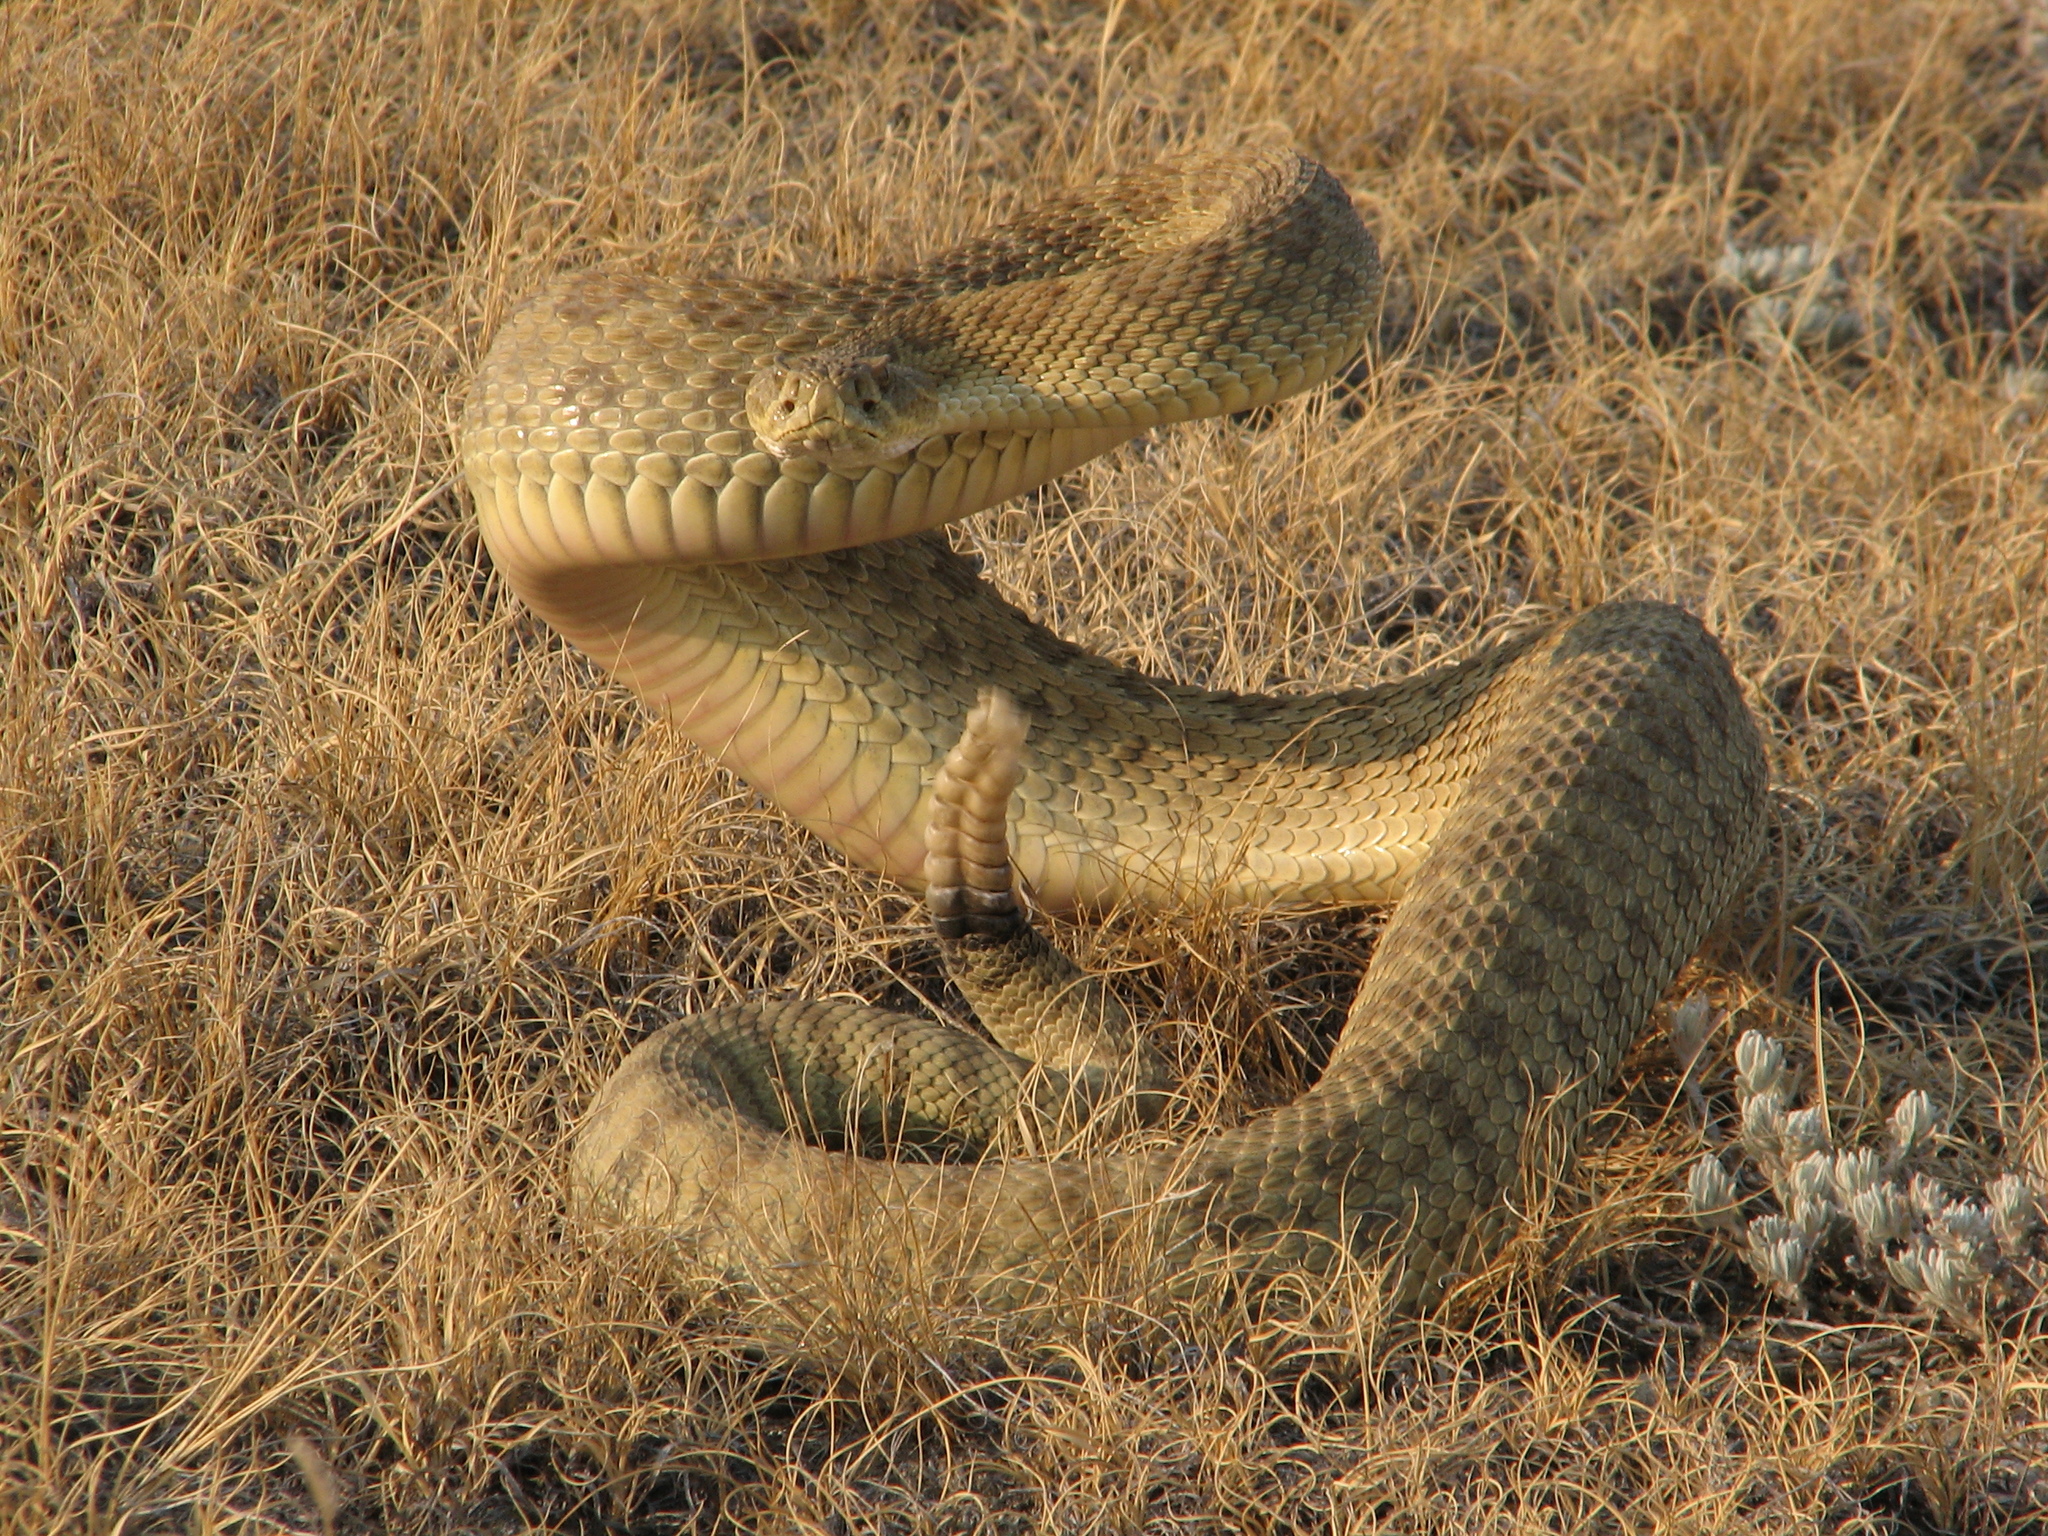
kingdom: Animalia
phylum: Chordata
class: Squamata
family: Viperidae
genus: Crotalus
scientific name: Crotalus viridis
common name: Prairie rattlesnake
